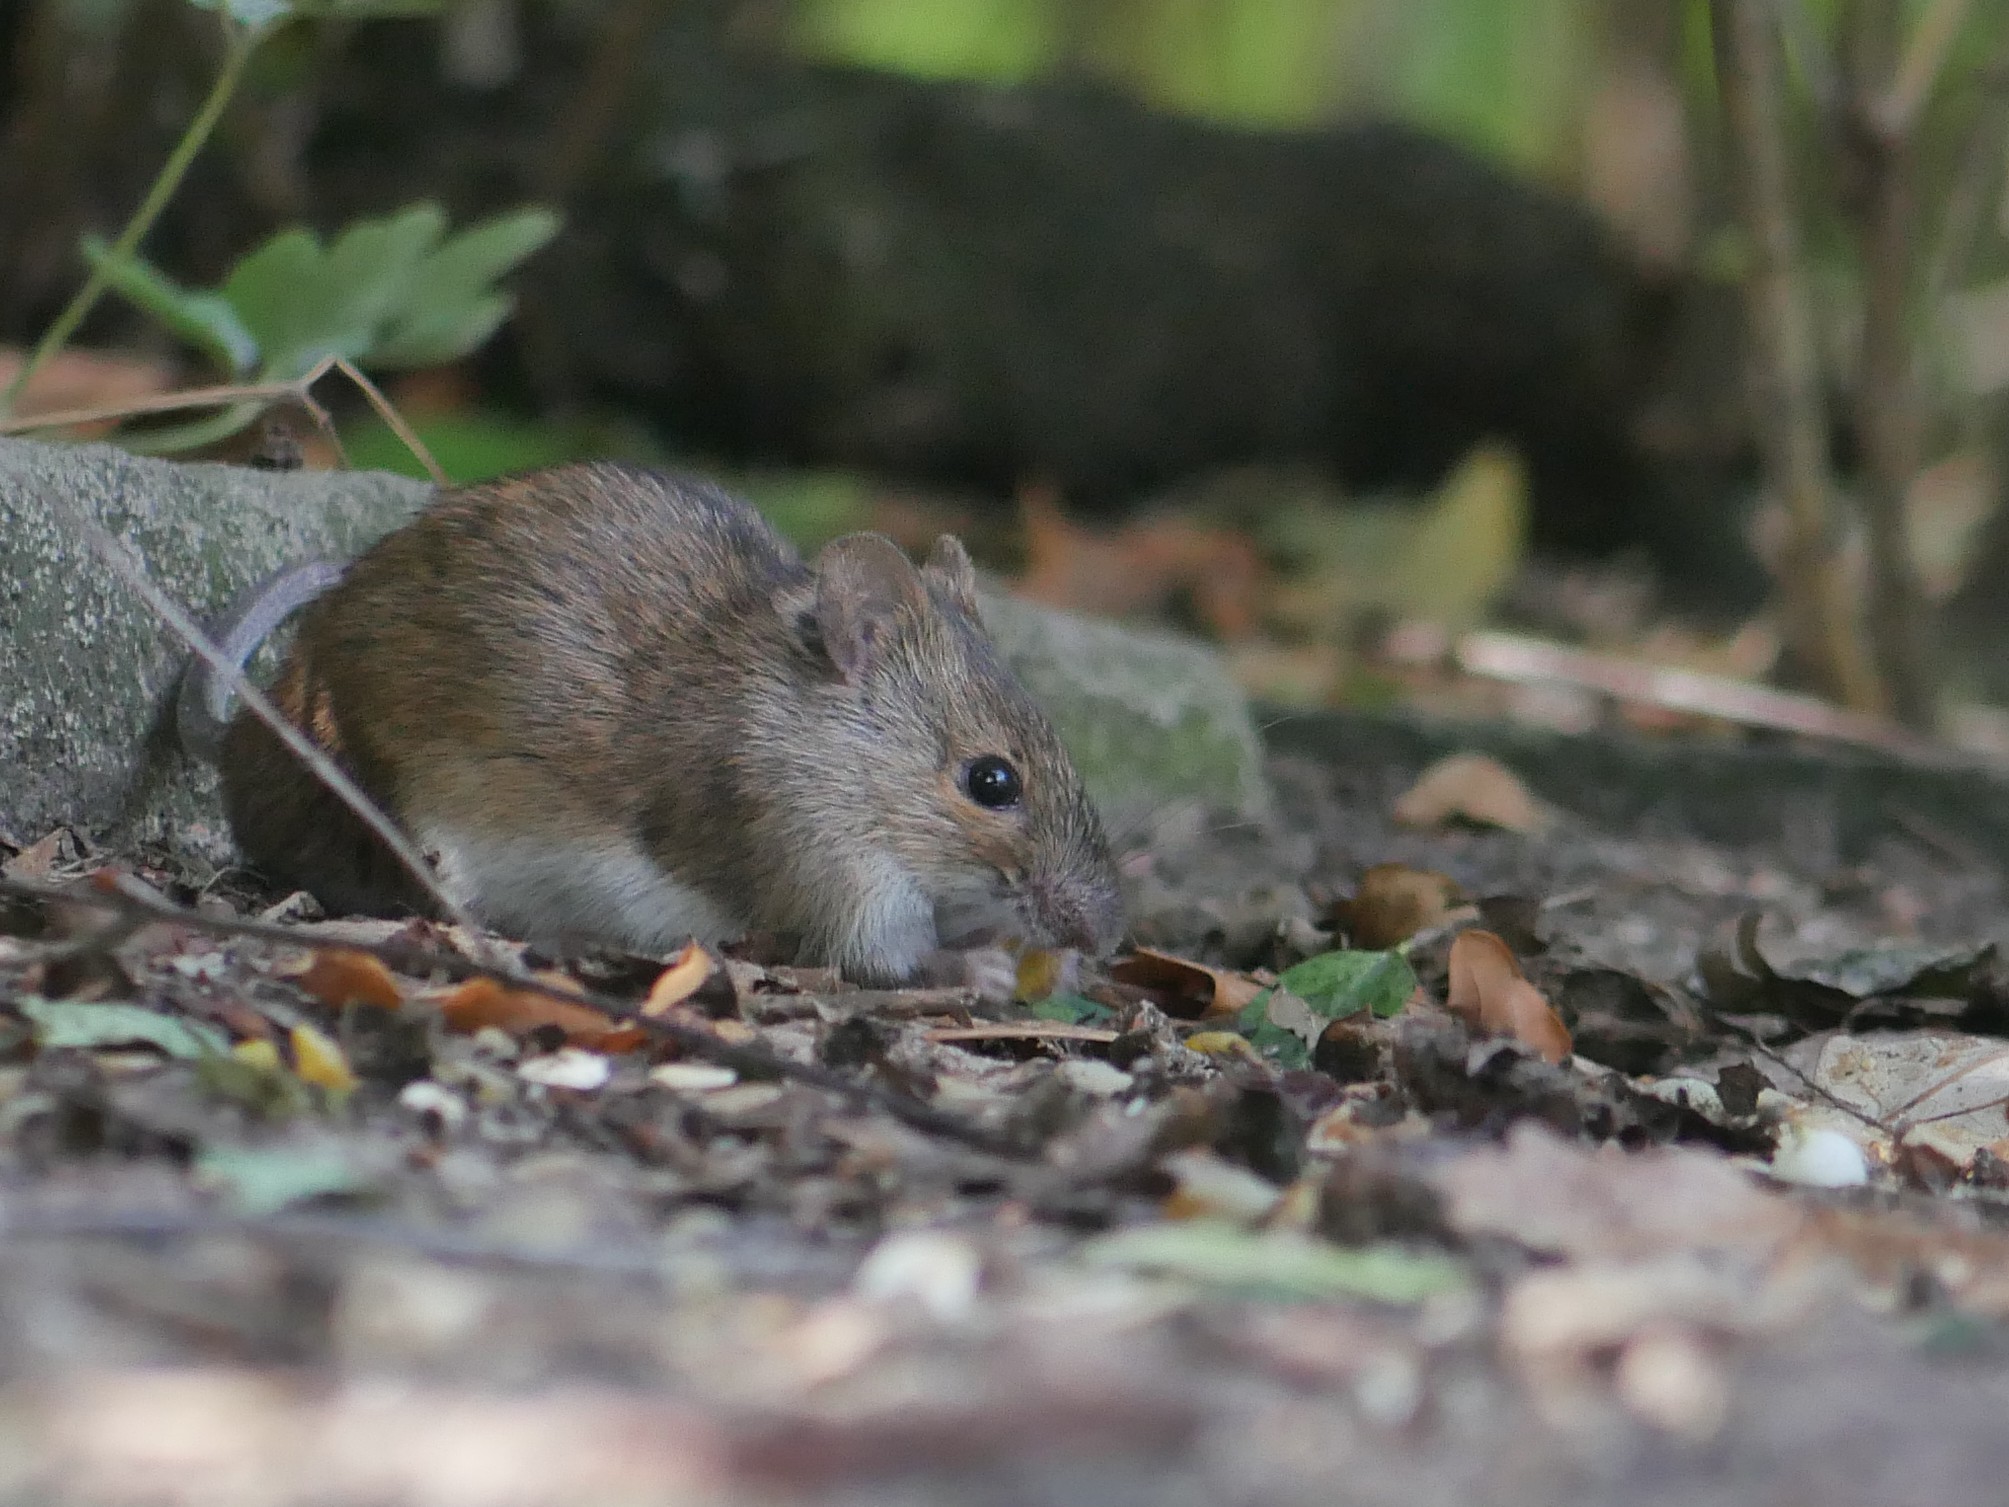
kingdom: Animalia
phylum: Chordata
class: Mammalia
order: Rodentia
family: Muridae
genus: Apodemus
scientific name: Apodemus agrarius
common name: Striped field mouse
